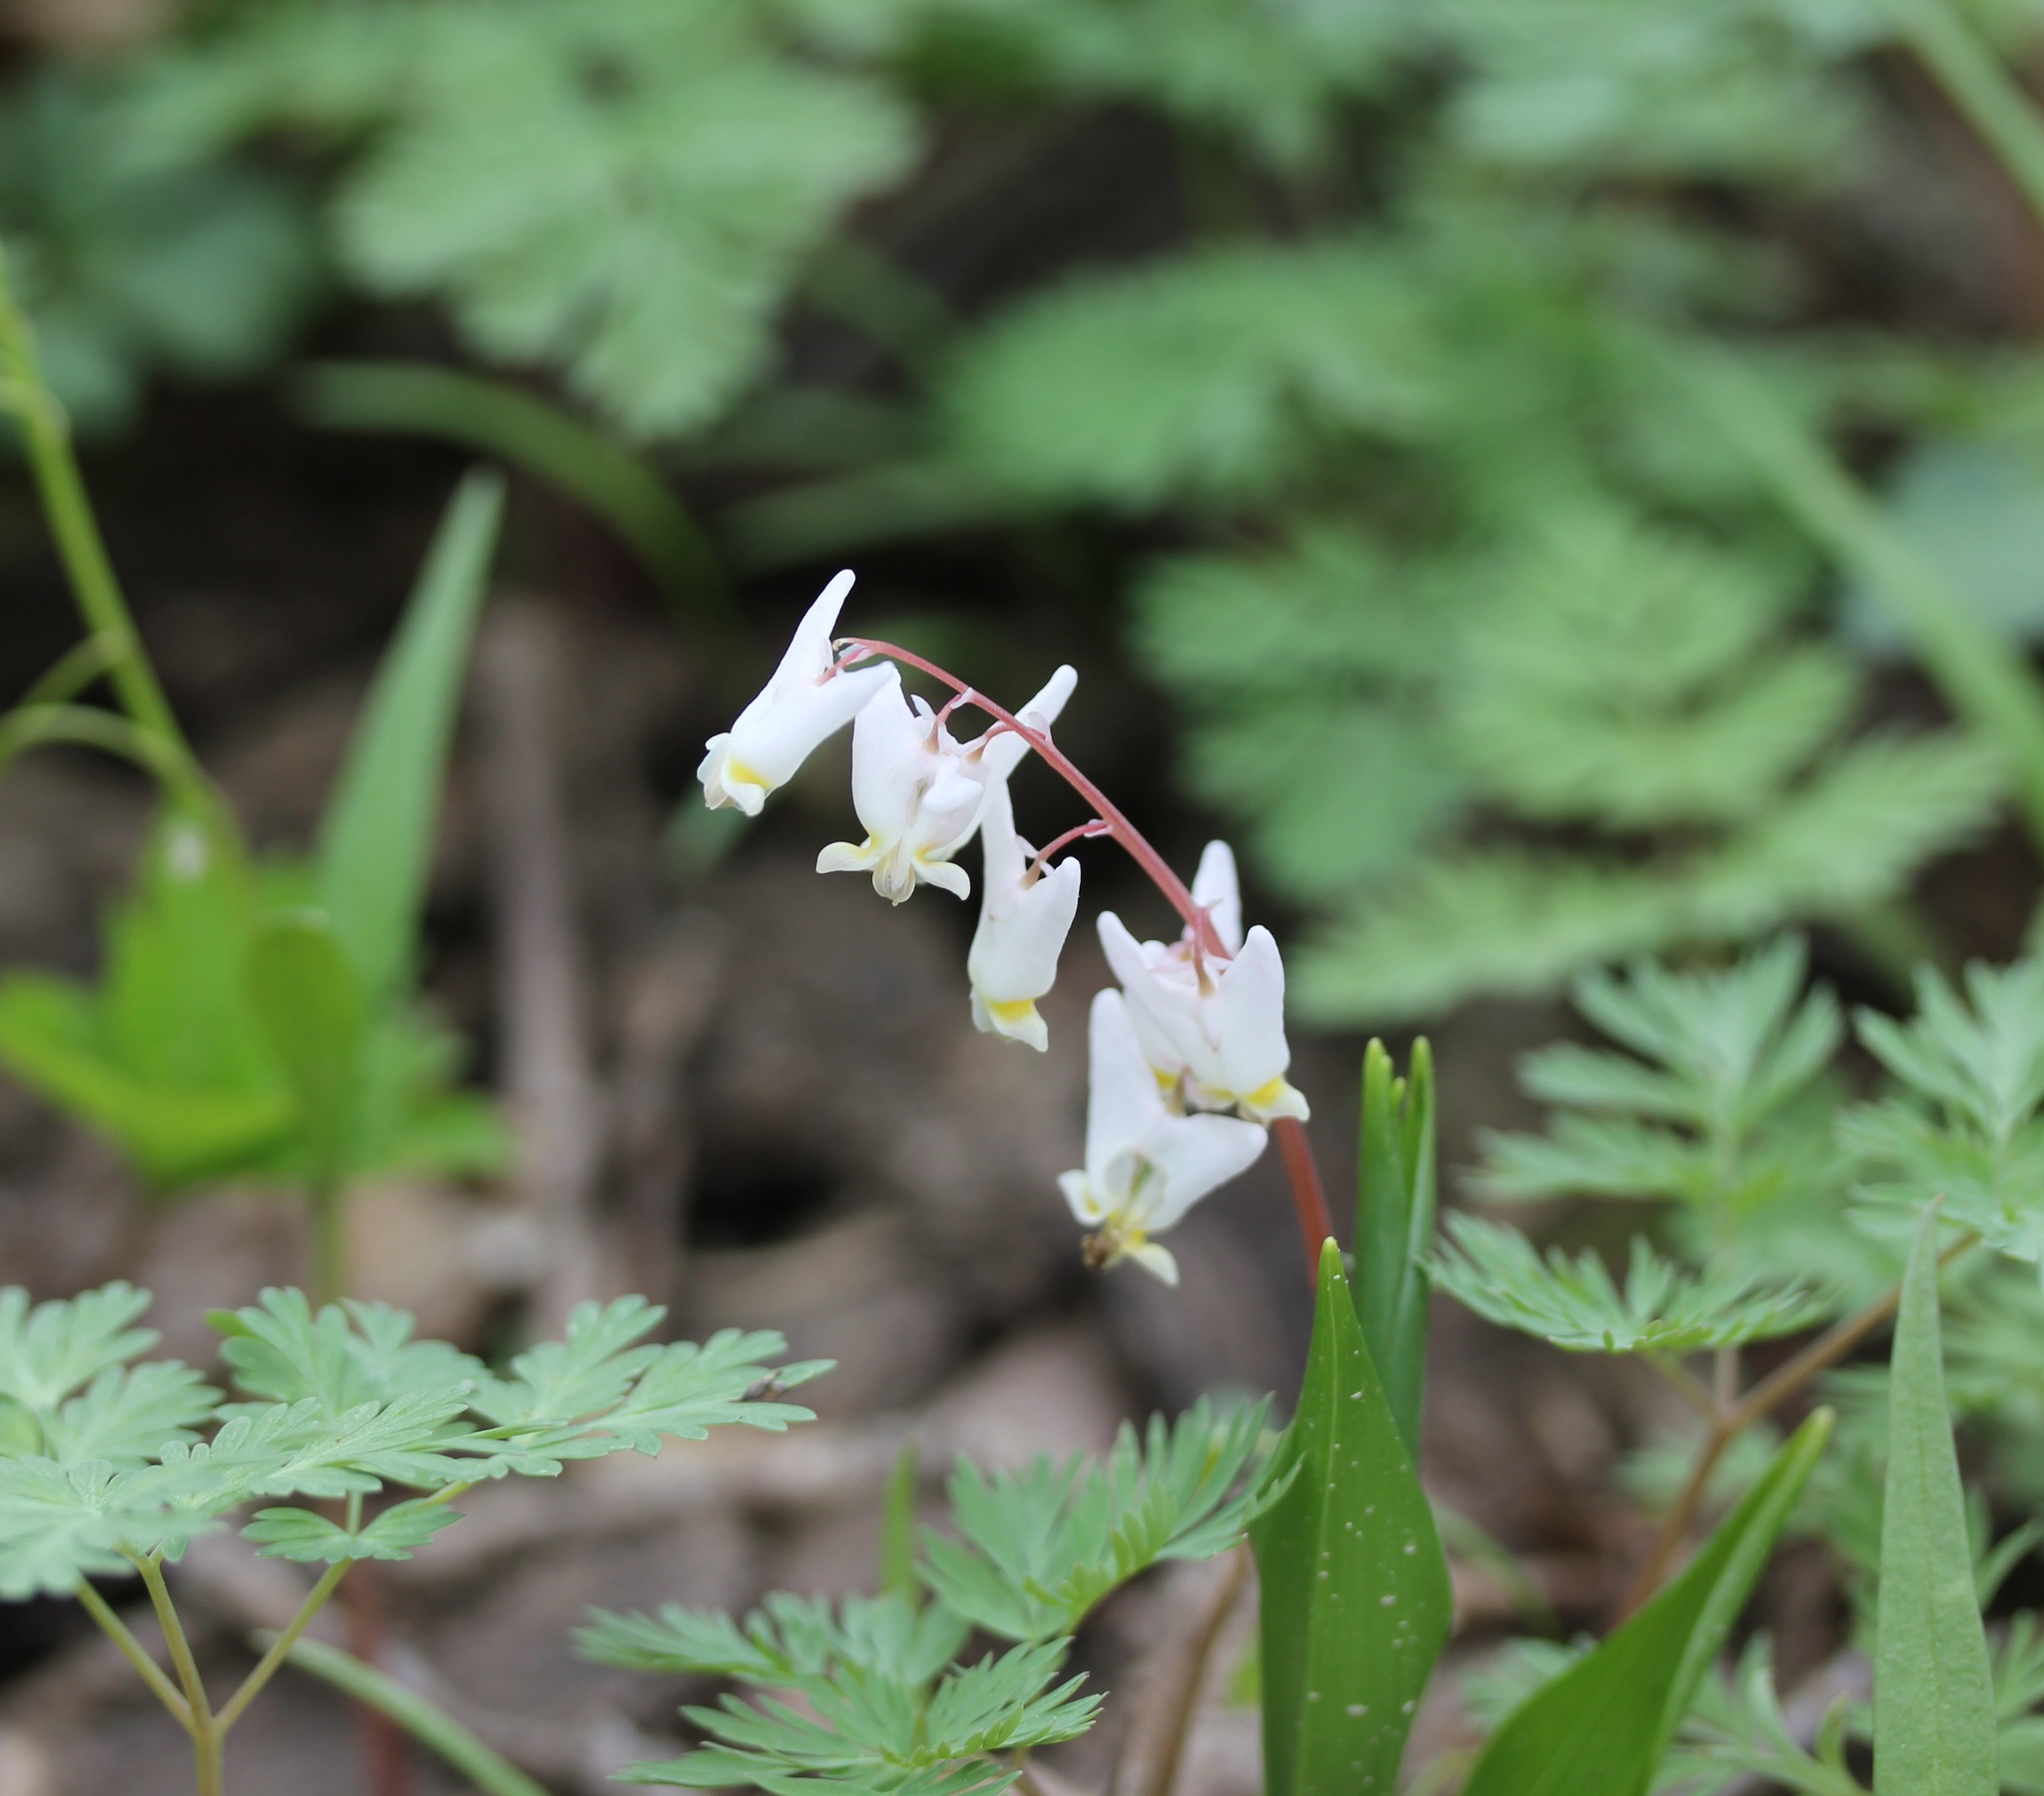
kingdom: Plantae
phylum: Tracheophyta
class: Magnoliopsida
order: Ranunculales
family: Papaveraceae
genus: Dicentra
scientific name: Dicentra cucullaria
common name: Dutchman's breeches
